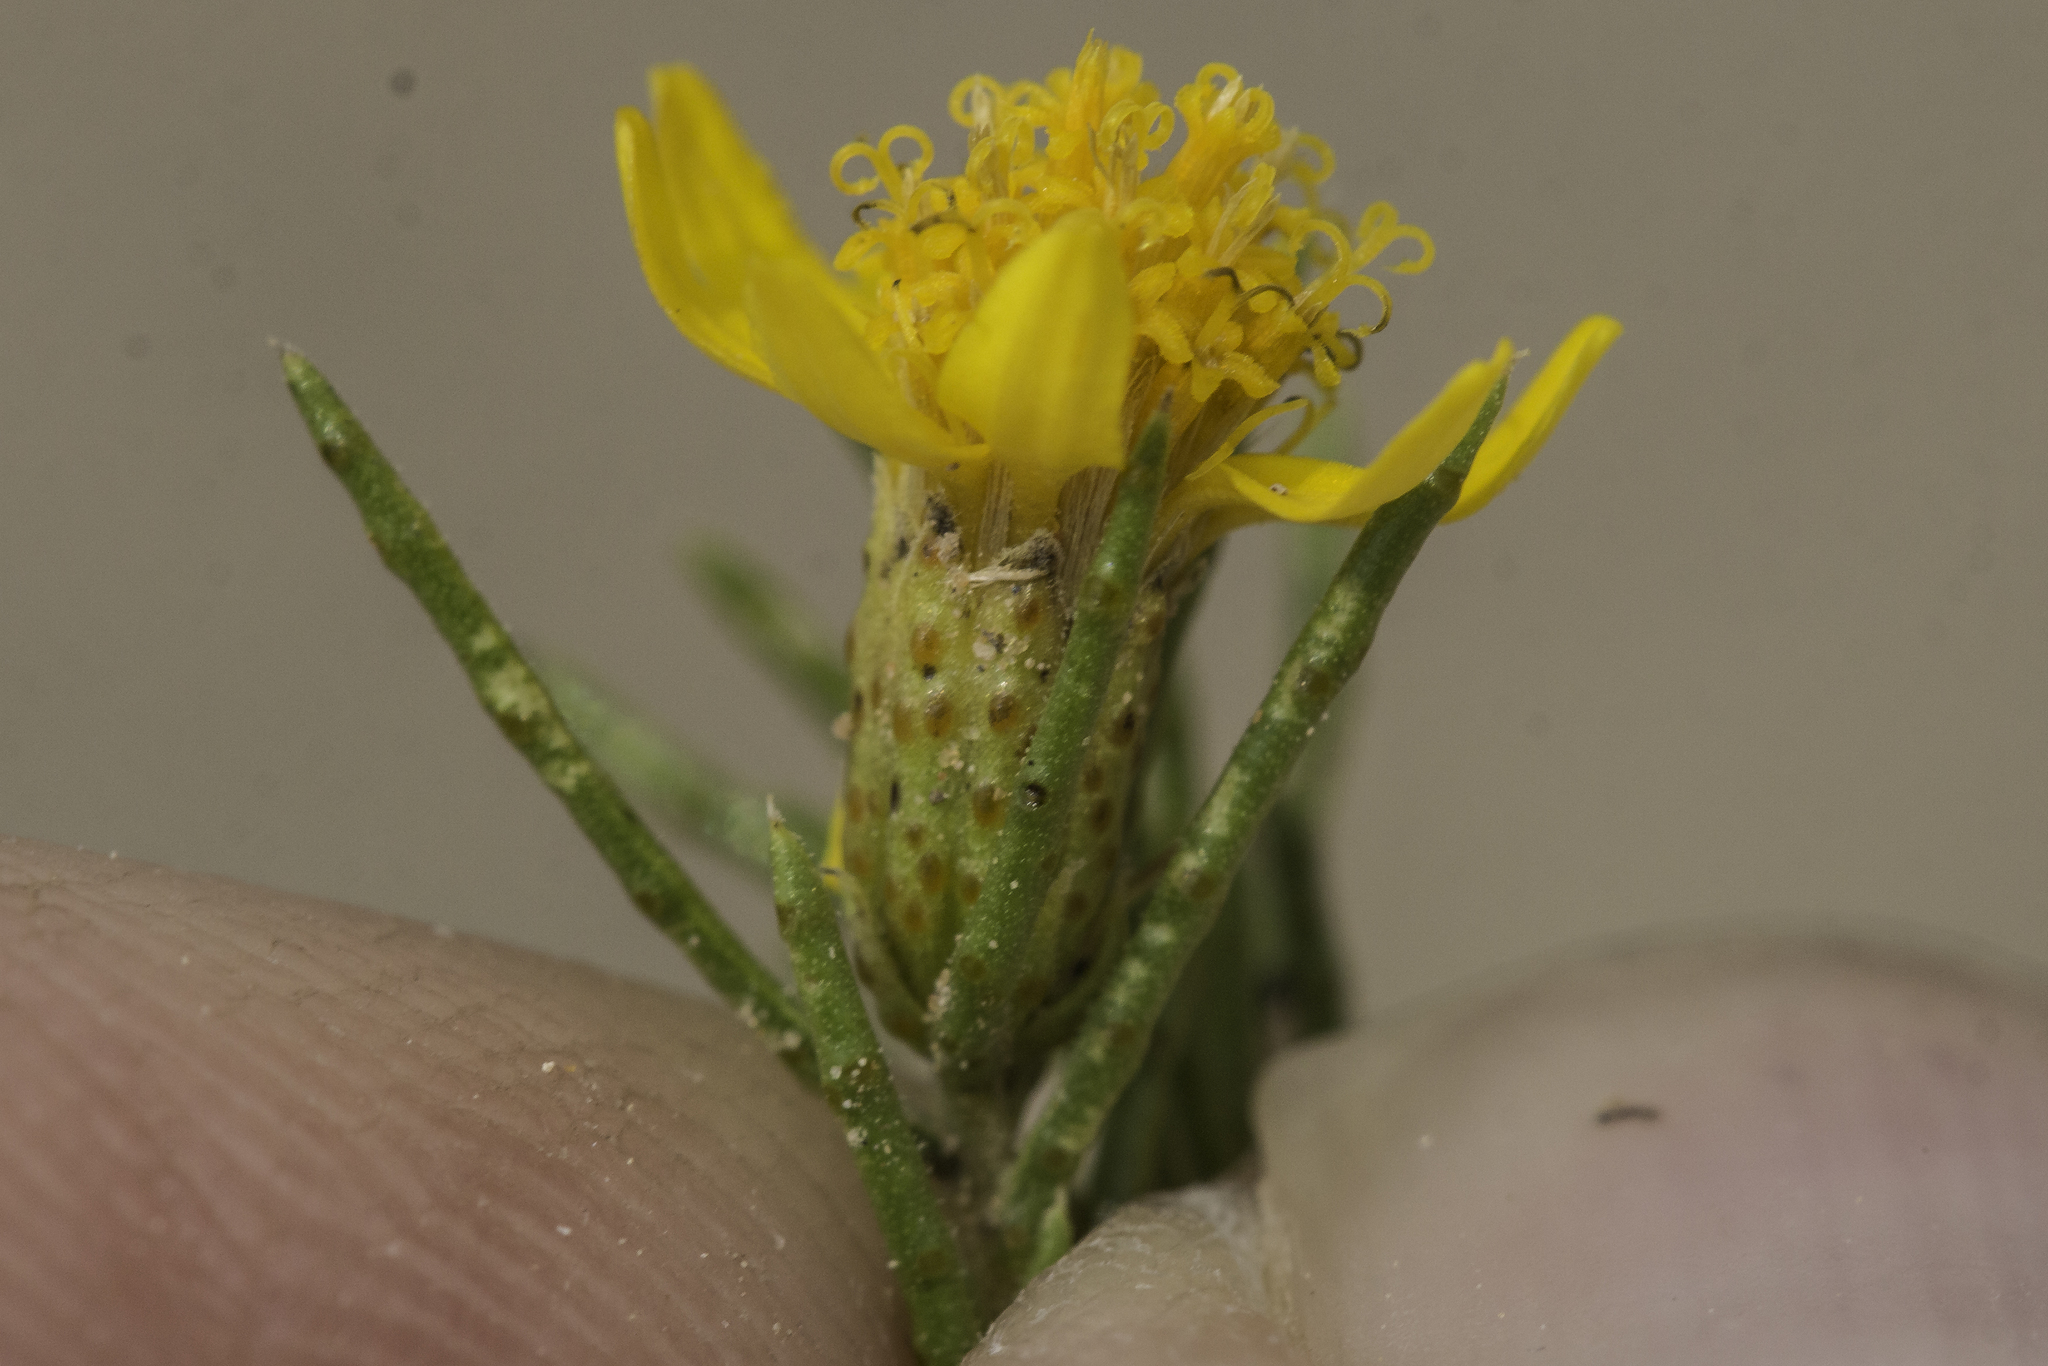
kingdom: Plantae
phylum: Tracheophyta
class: Magnoliopsida
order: Asterales
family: Asteraceae
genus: Thymophylla
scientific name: Thymophylla acerosa
